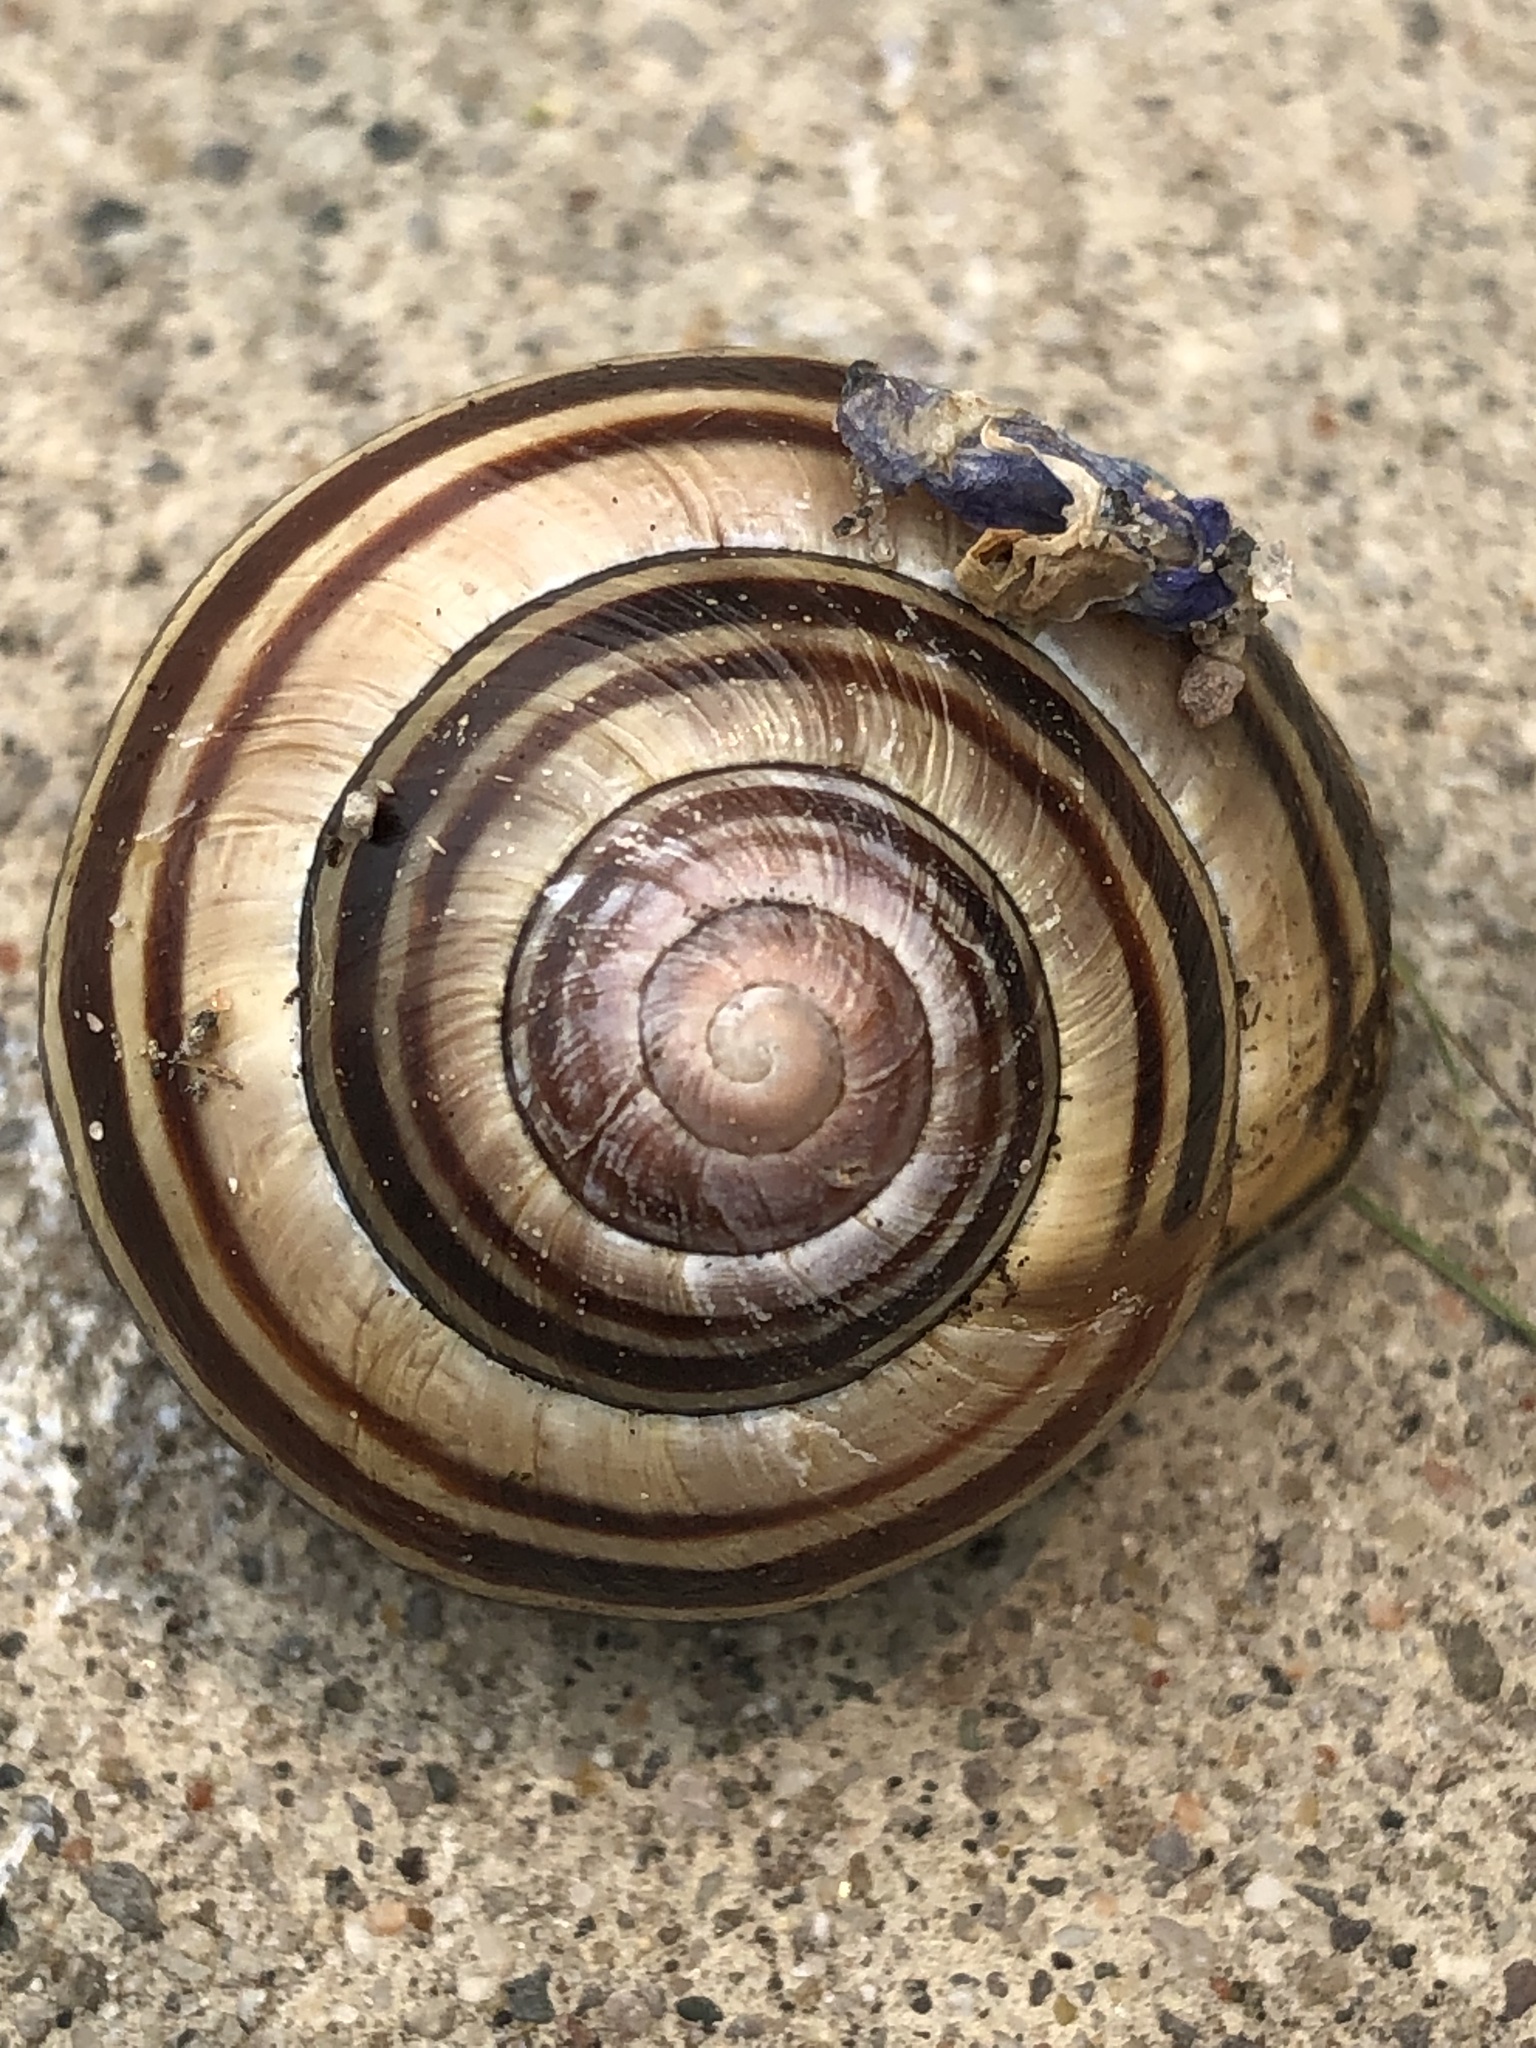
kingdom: Animalia
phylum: Mollusca
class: Gastropoda
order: Stylommatophora
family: Helicidae
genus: Cepaea
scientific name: Cepaea nemoralis
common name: Grovesnail
